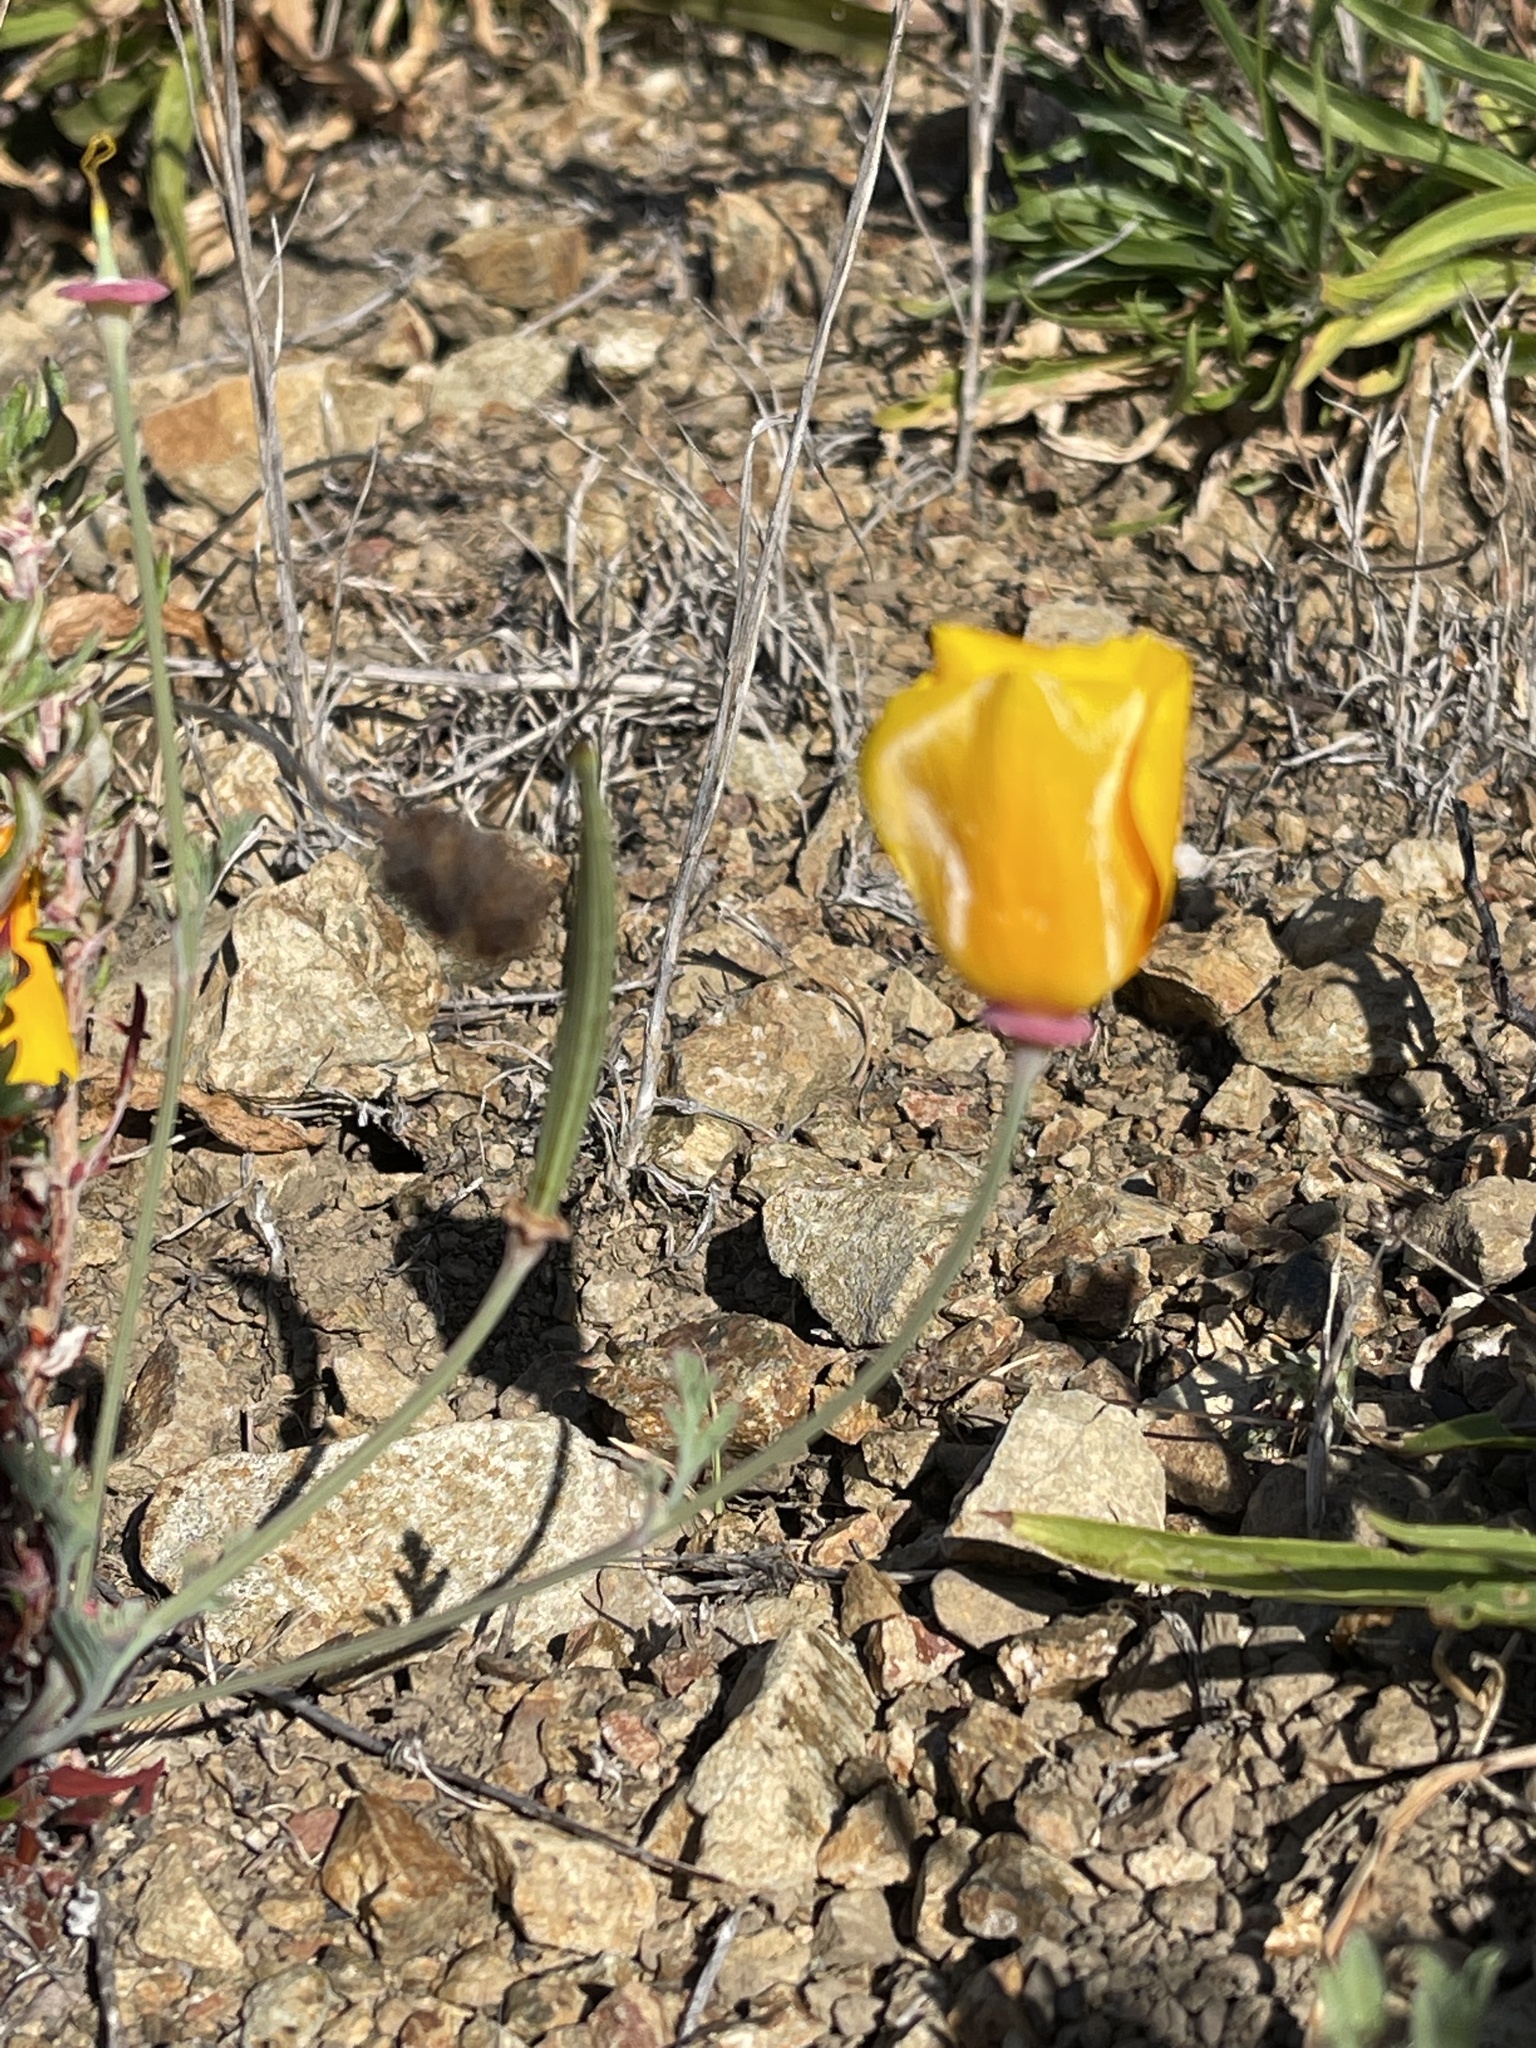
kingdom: Plantae
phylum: Tracheophyta
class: Magnoliopsida
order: Ranunculales
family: Papaveraceae
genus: Eschscholzia
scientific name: Eschscholzia californica
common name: California poppy
